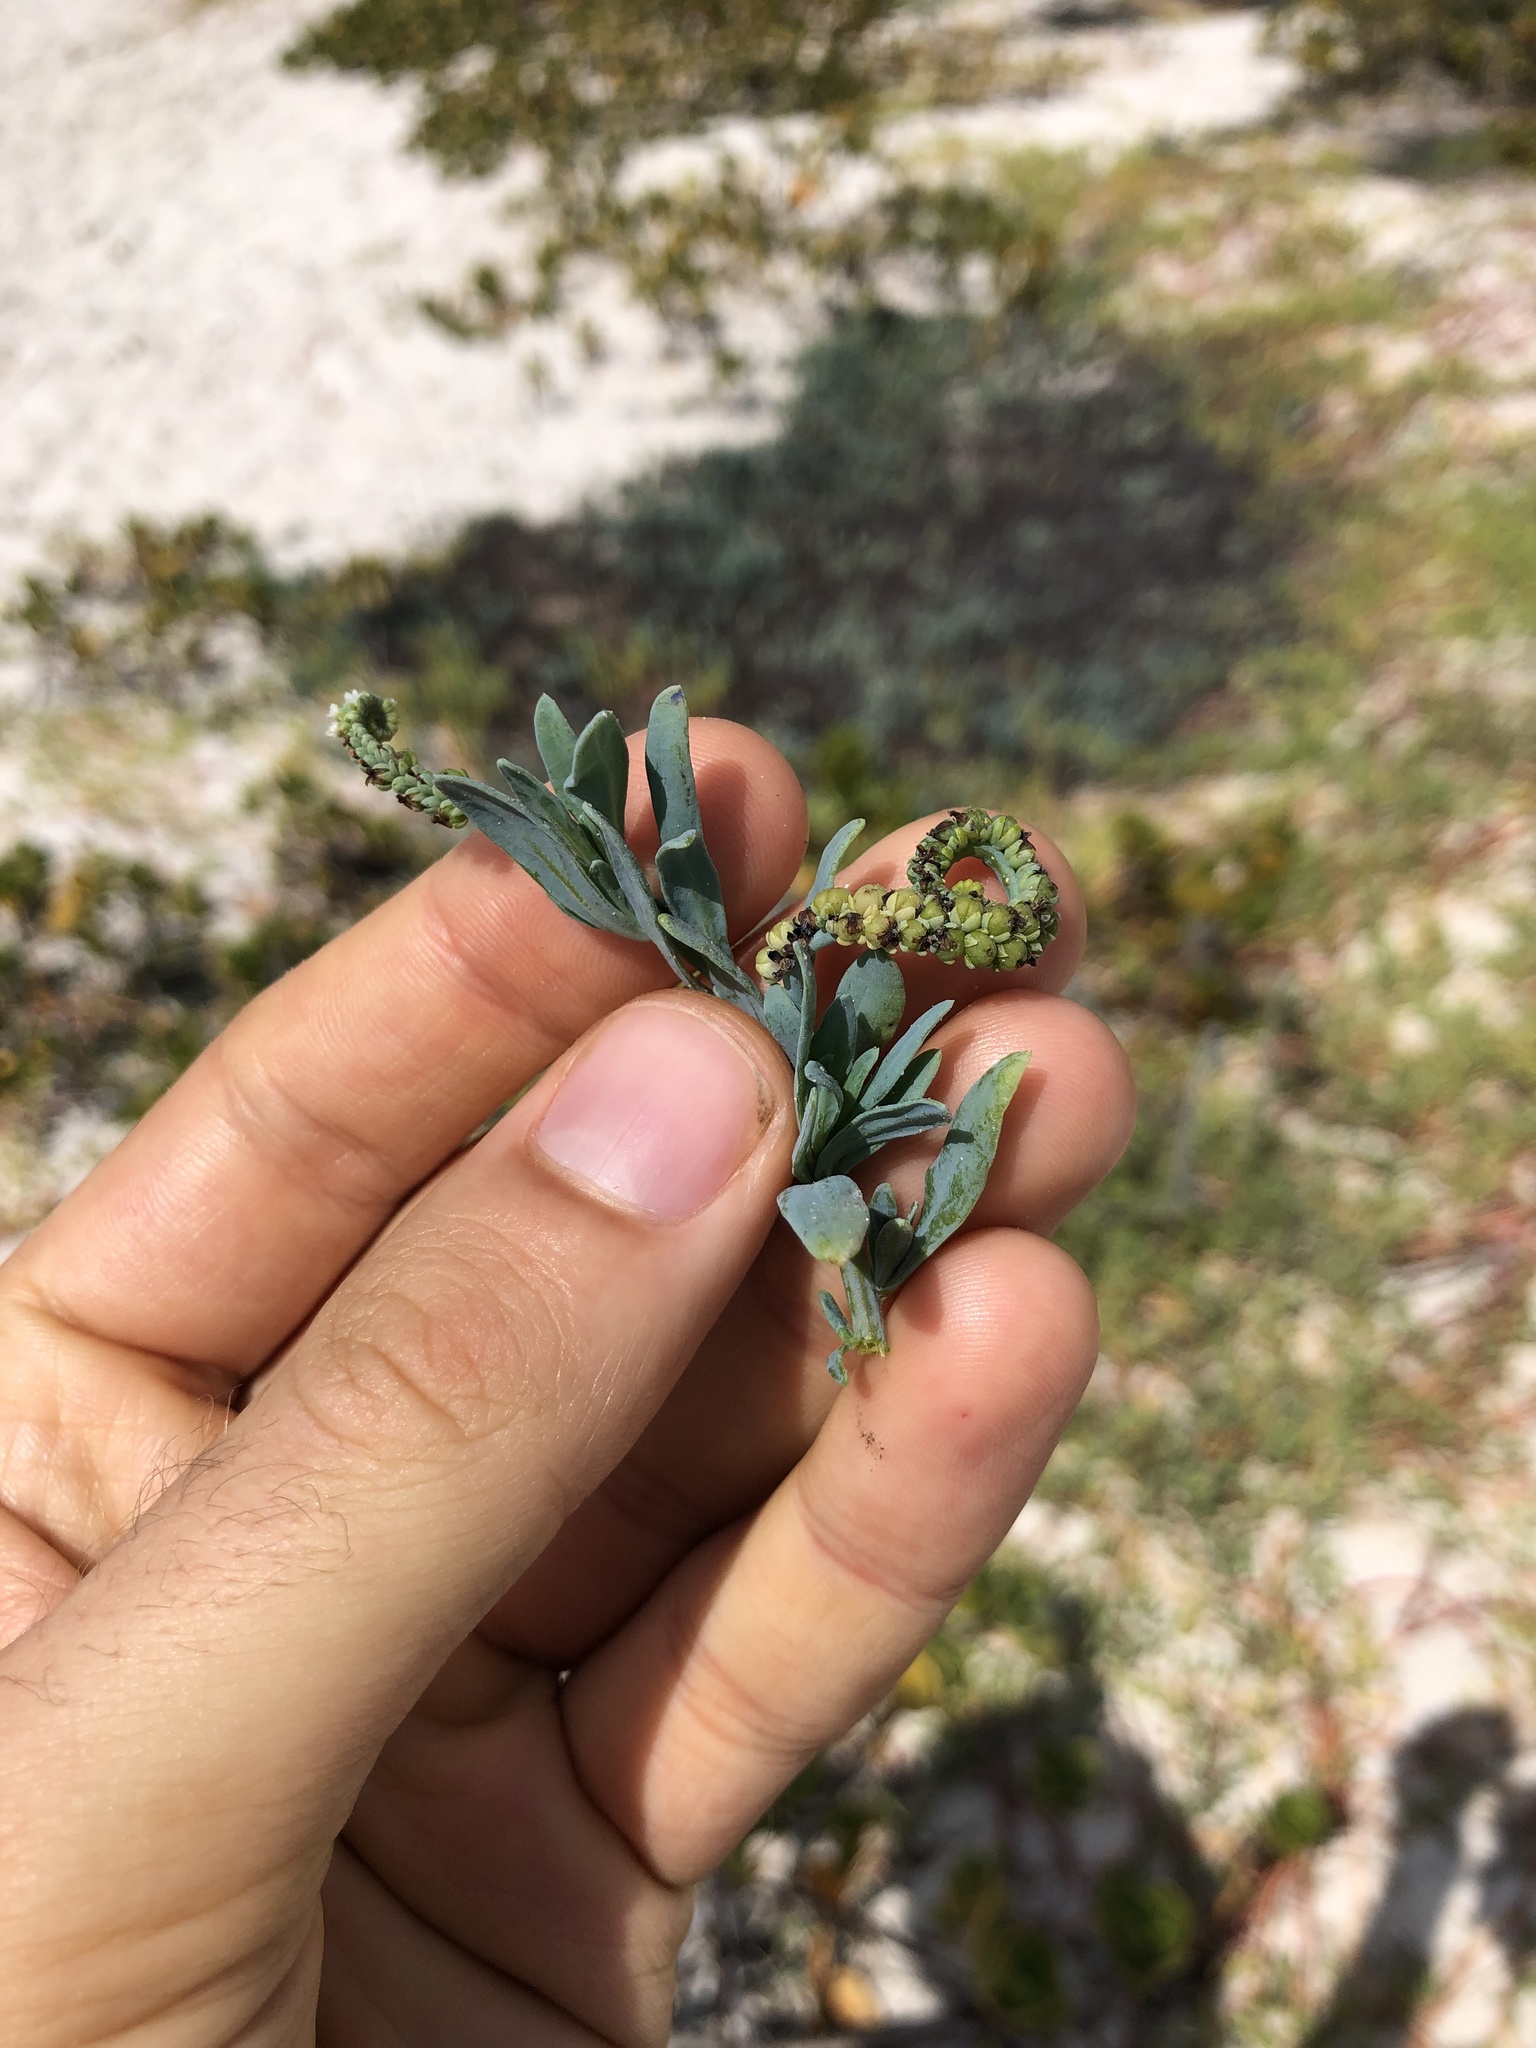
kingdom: Plantae
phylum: Tracheophyta
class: Magnoliopsida
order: Boraginales
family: Heliotropiaceae
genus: Heliotropium
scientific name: Heliotropium curassavicum
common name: Seaside heliotrope
